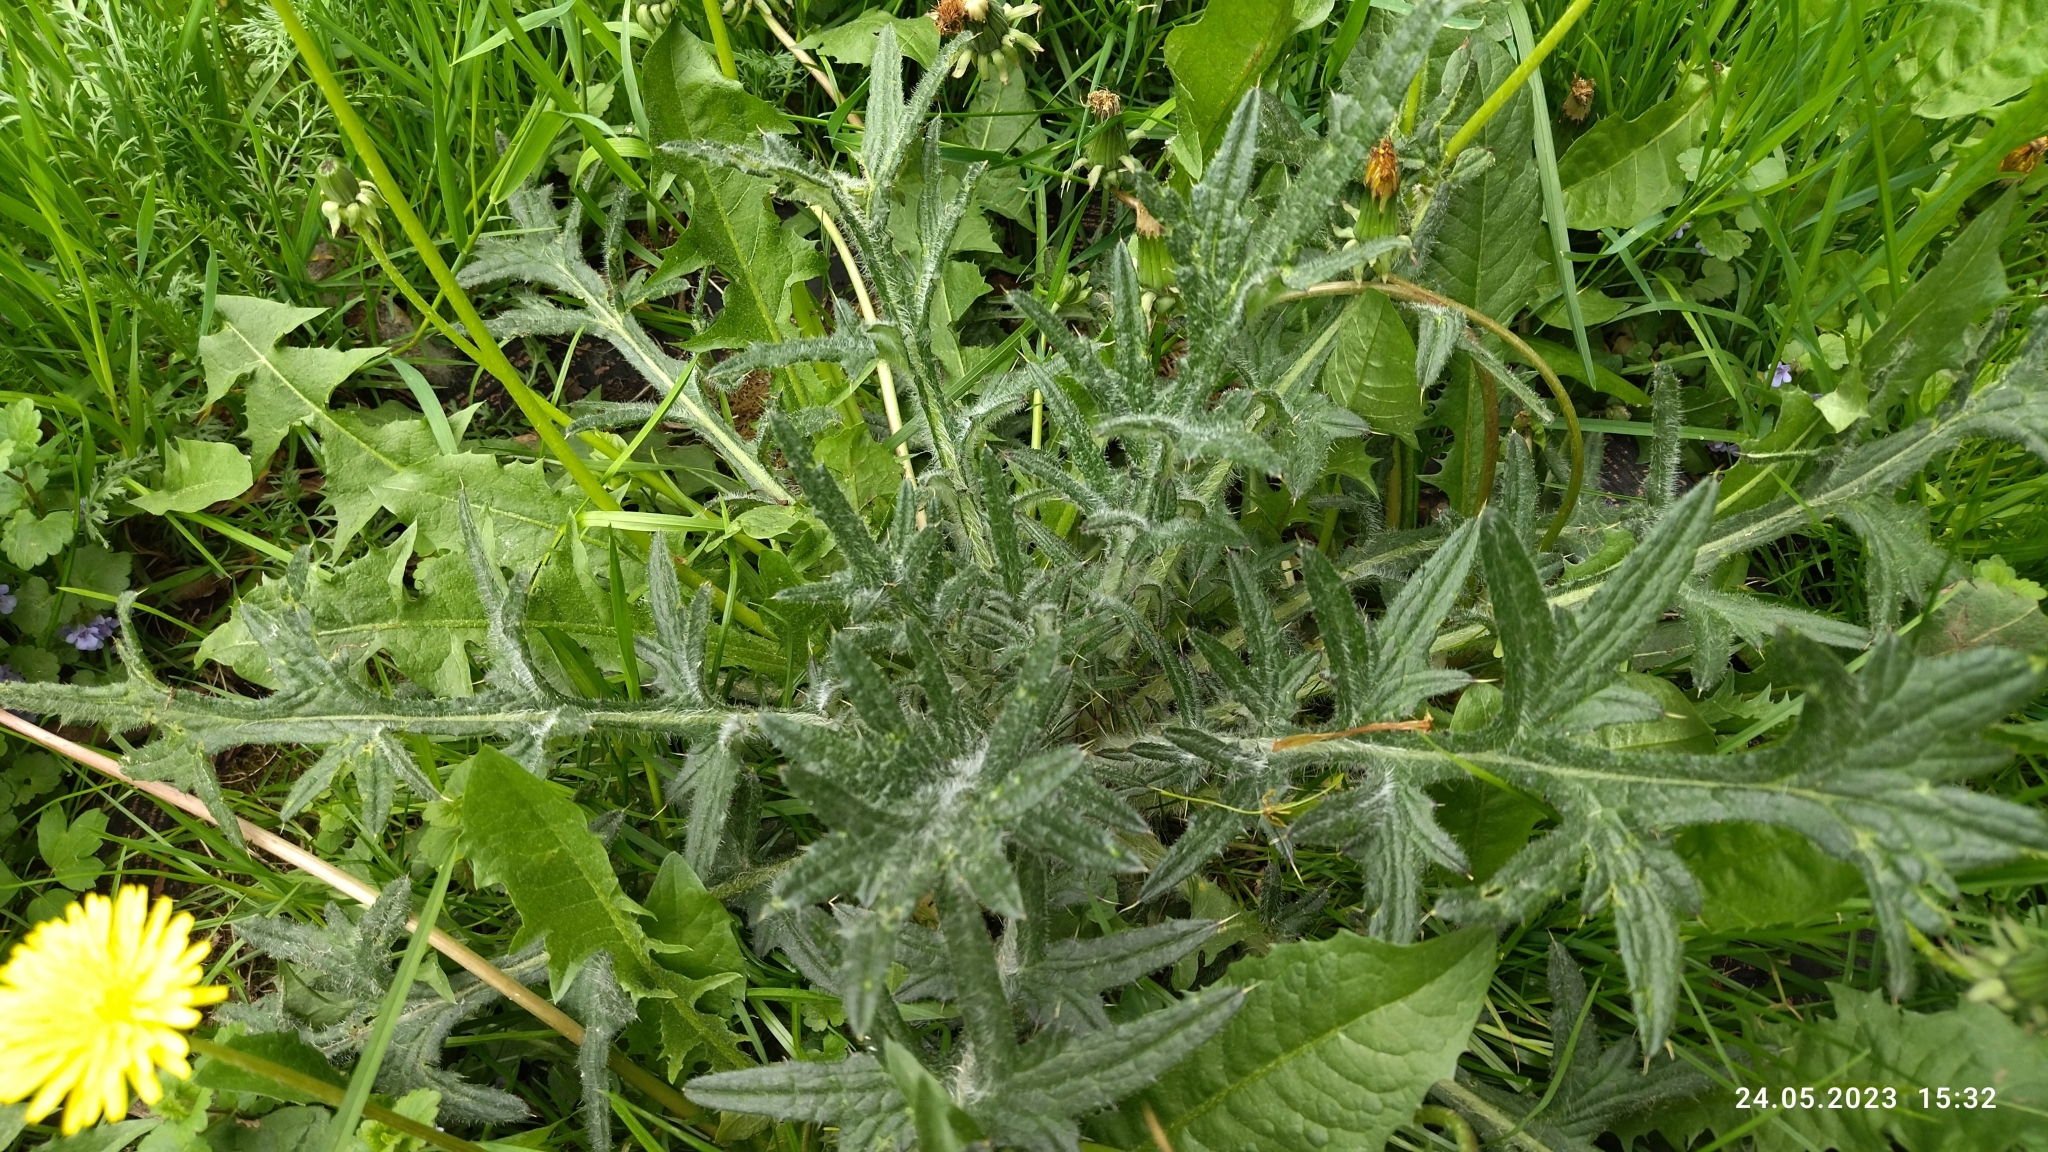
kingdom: Plantae
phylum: Tracheophyta
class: Magnoliopsida
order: Asterales
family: Asteraceae
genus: Cirsium
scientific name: Cirsium vulgare
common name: Bull thistle
